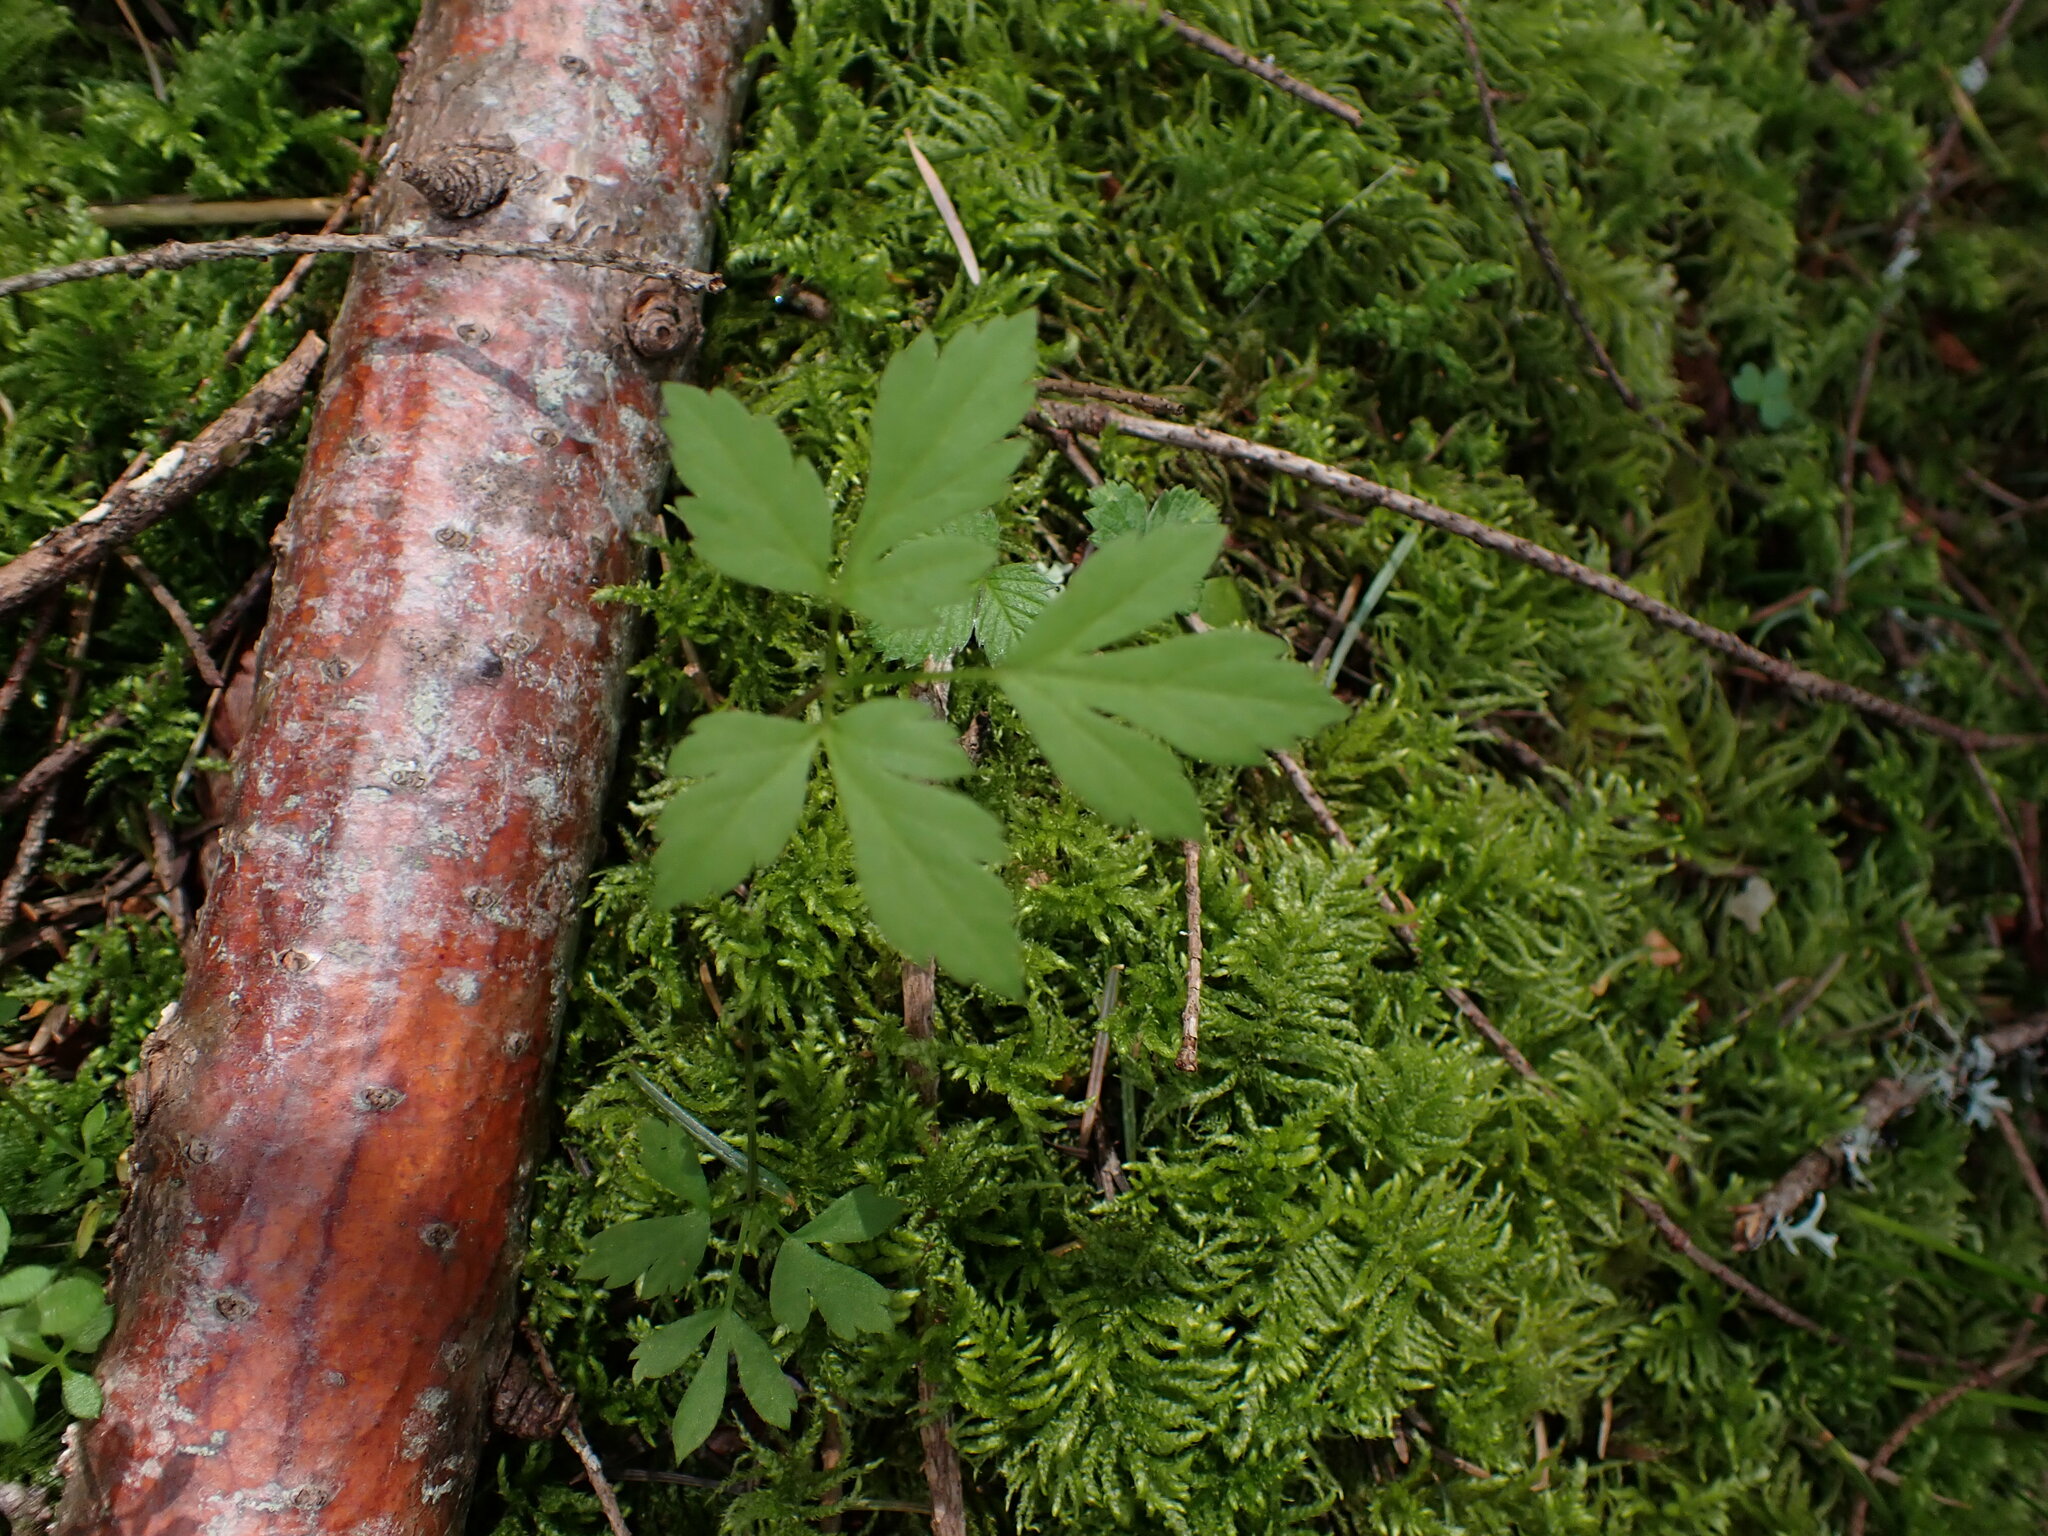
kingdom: Plantae
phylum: Tracheophyta
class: Magnoliopsida
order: Apiales
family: Apiaceae
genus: Osmorhiza
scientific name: Osmorhiza berteroi
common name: Mountain sweet cicely
